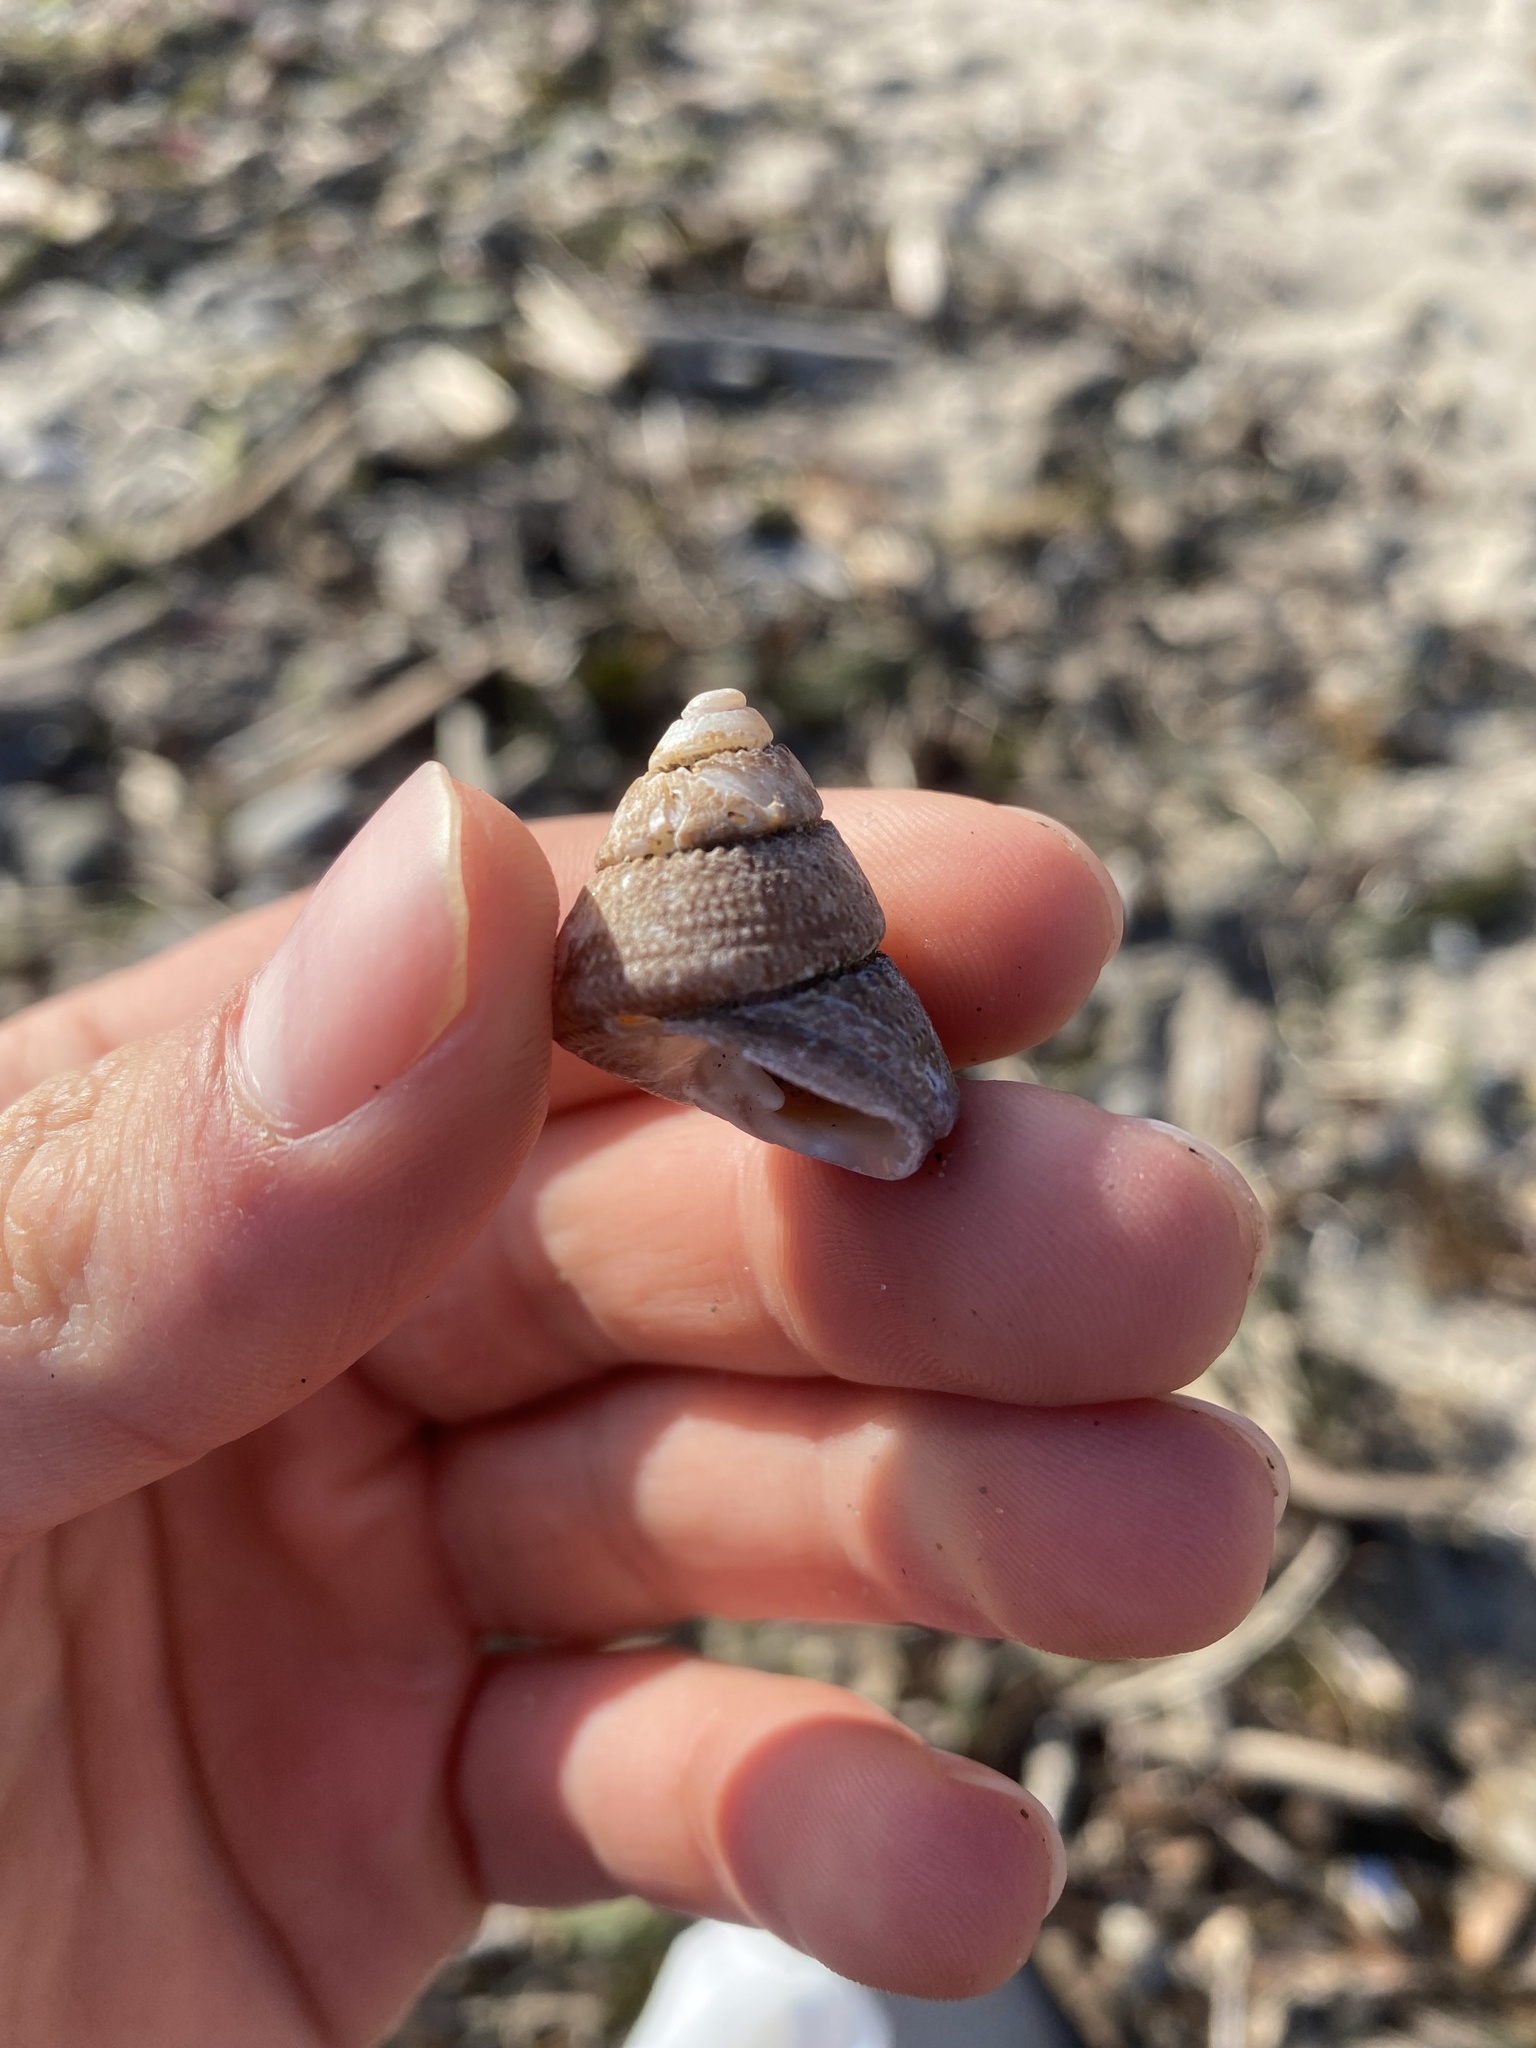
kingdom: Animalia
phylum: Mollusca
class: Gastropoda
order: Seguenziida
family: Turcicidae
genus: Turcica
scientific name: Turcica caffea
